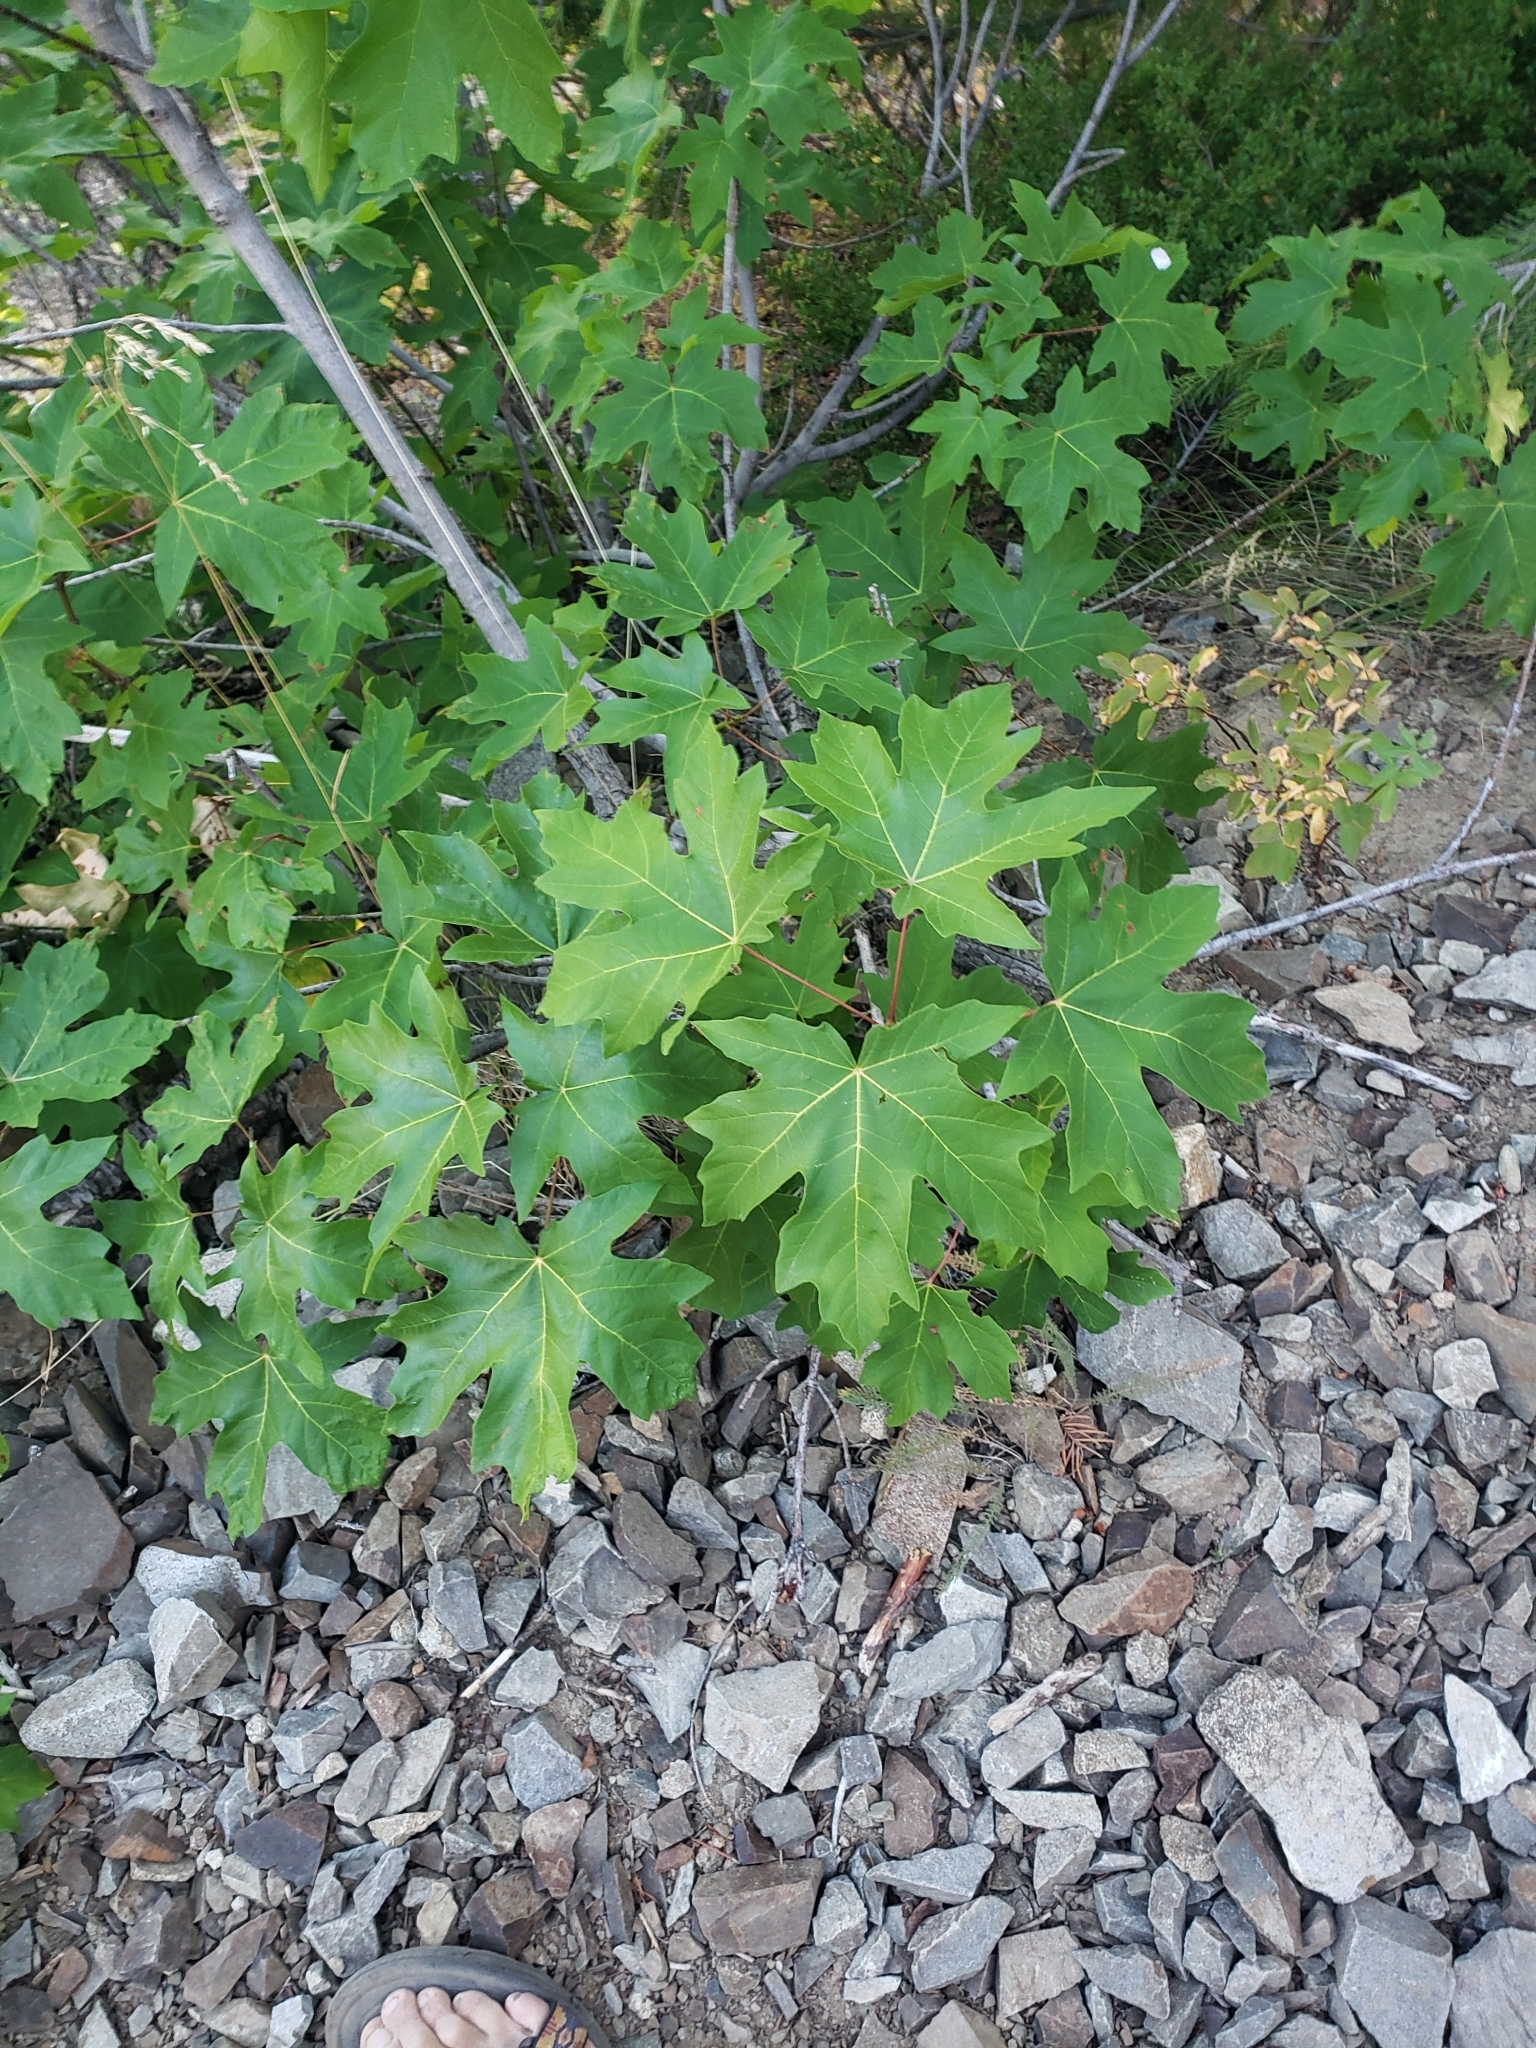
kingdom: Plantae
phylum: Tracheophyta
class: Magnoliopsida
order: Sapindales
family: Sapindaceae
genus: Acer
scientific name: Acer macrophyllum
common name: Oregon maple
